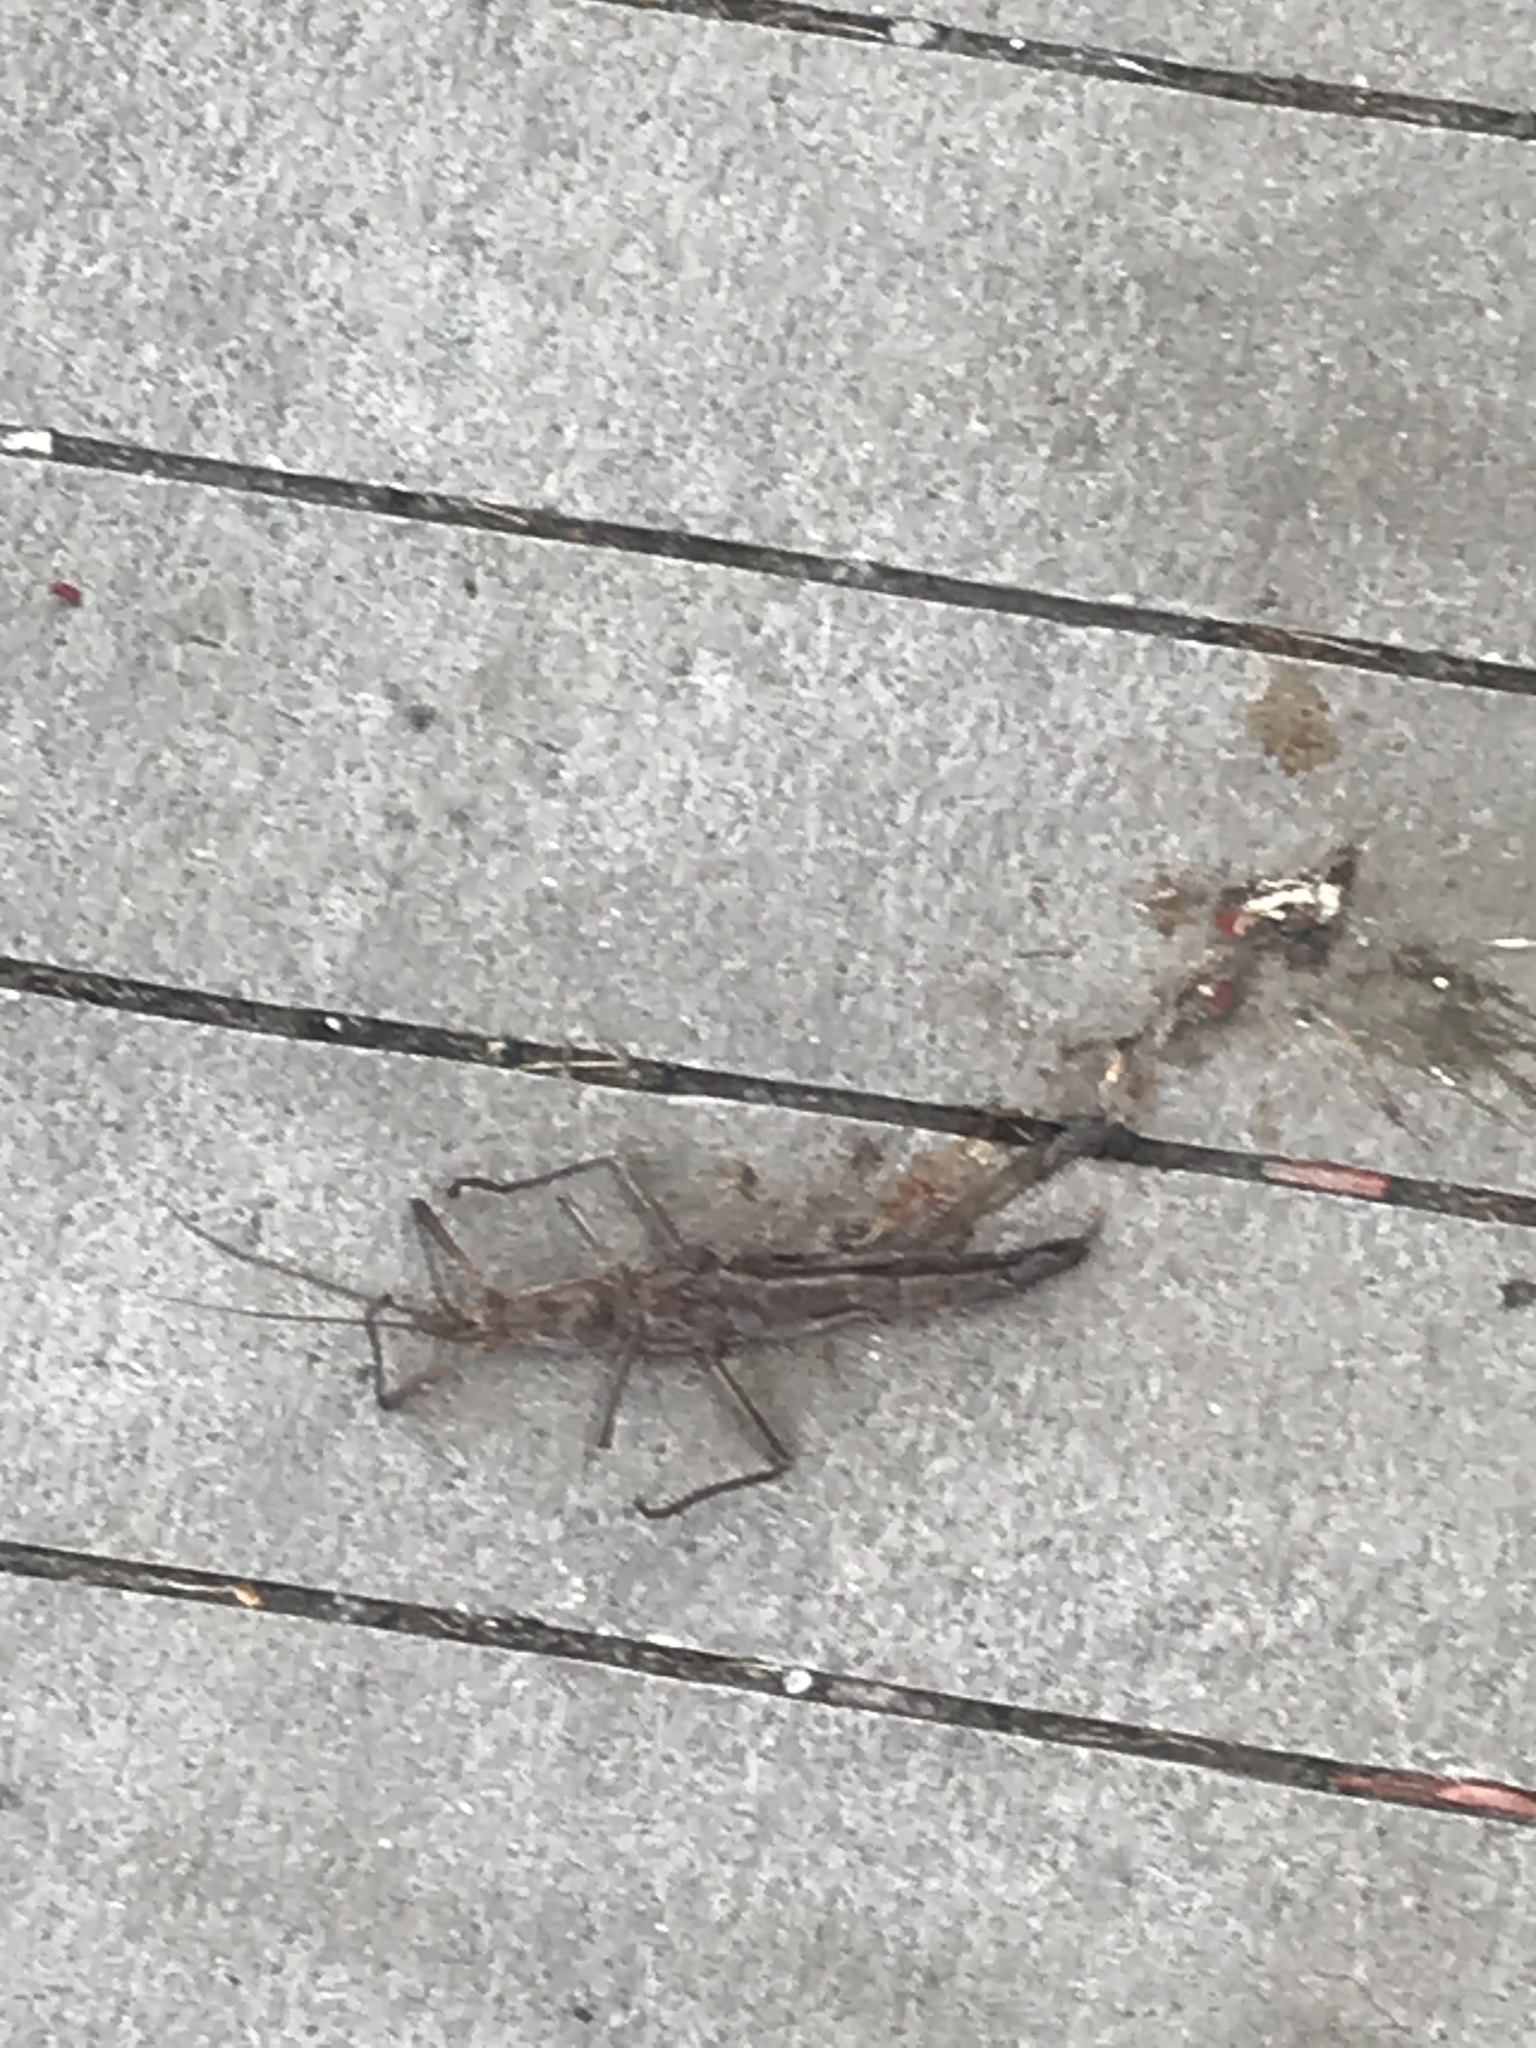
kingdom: Animalia
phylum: Arthropoda
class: Insecta
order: Phasmida
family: Pseudophasmatidae
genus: Anisomorpha
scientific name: Anisomorpha buprestoides
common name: Florida stick insect
